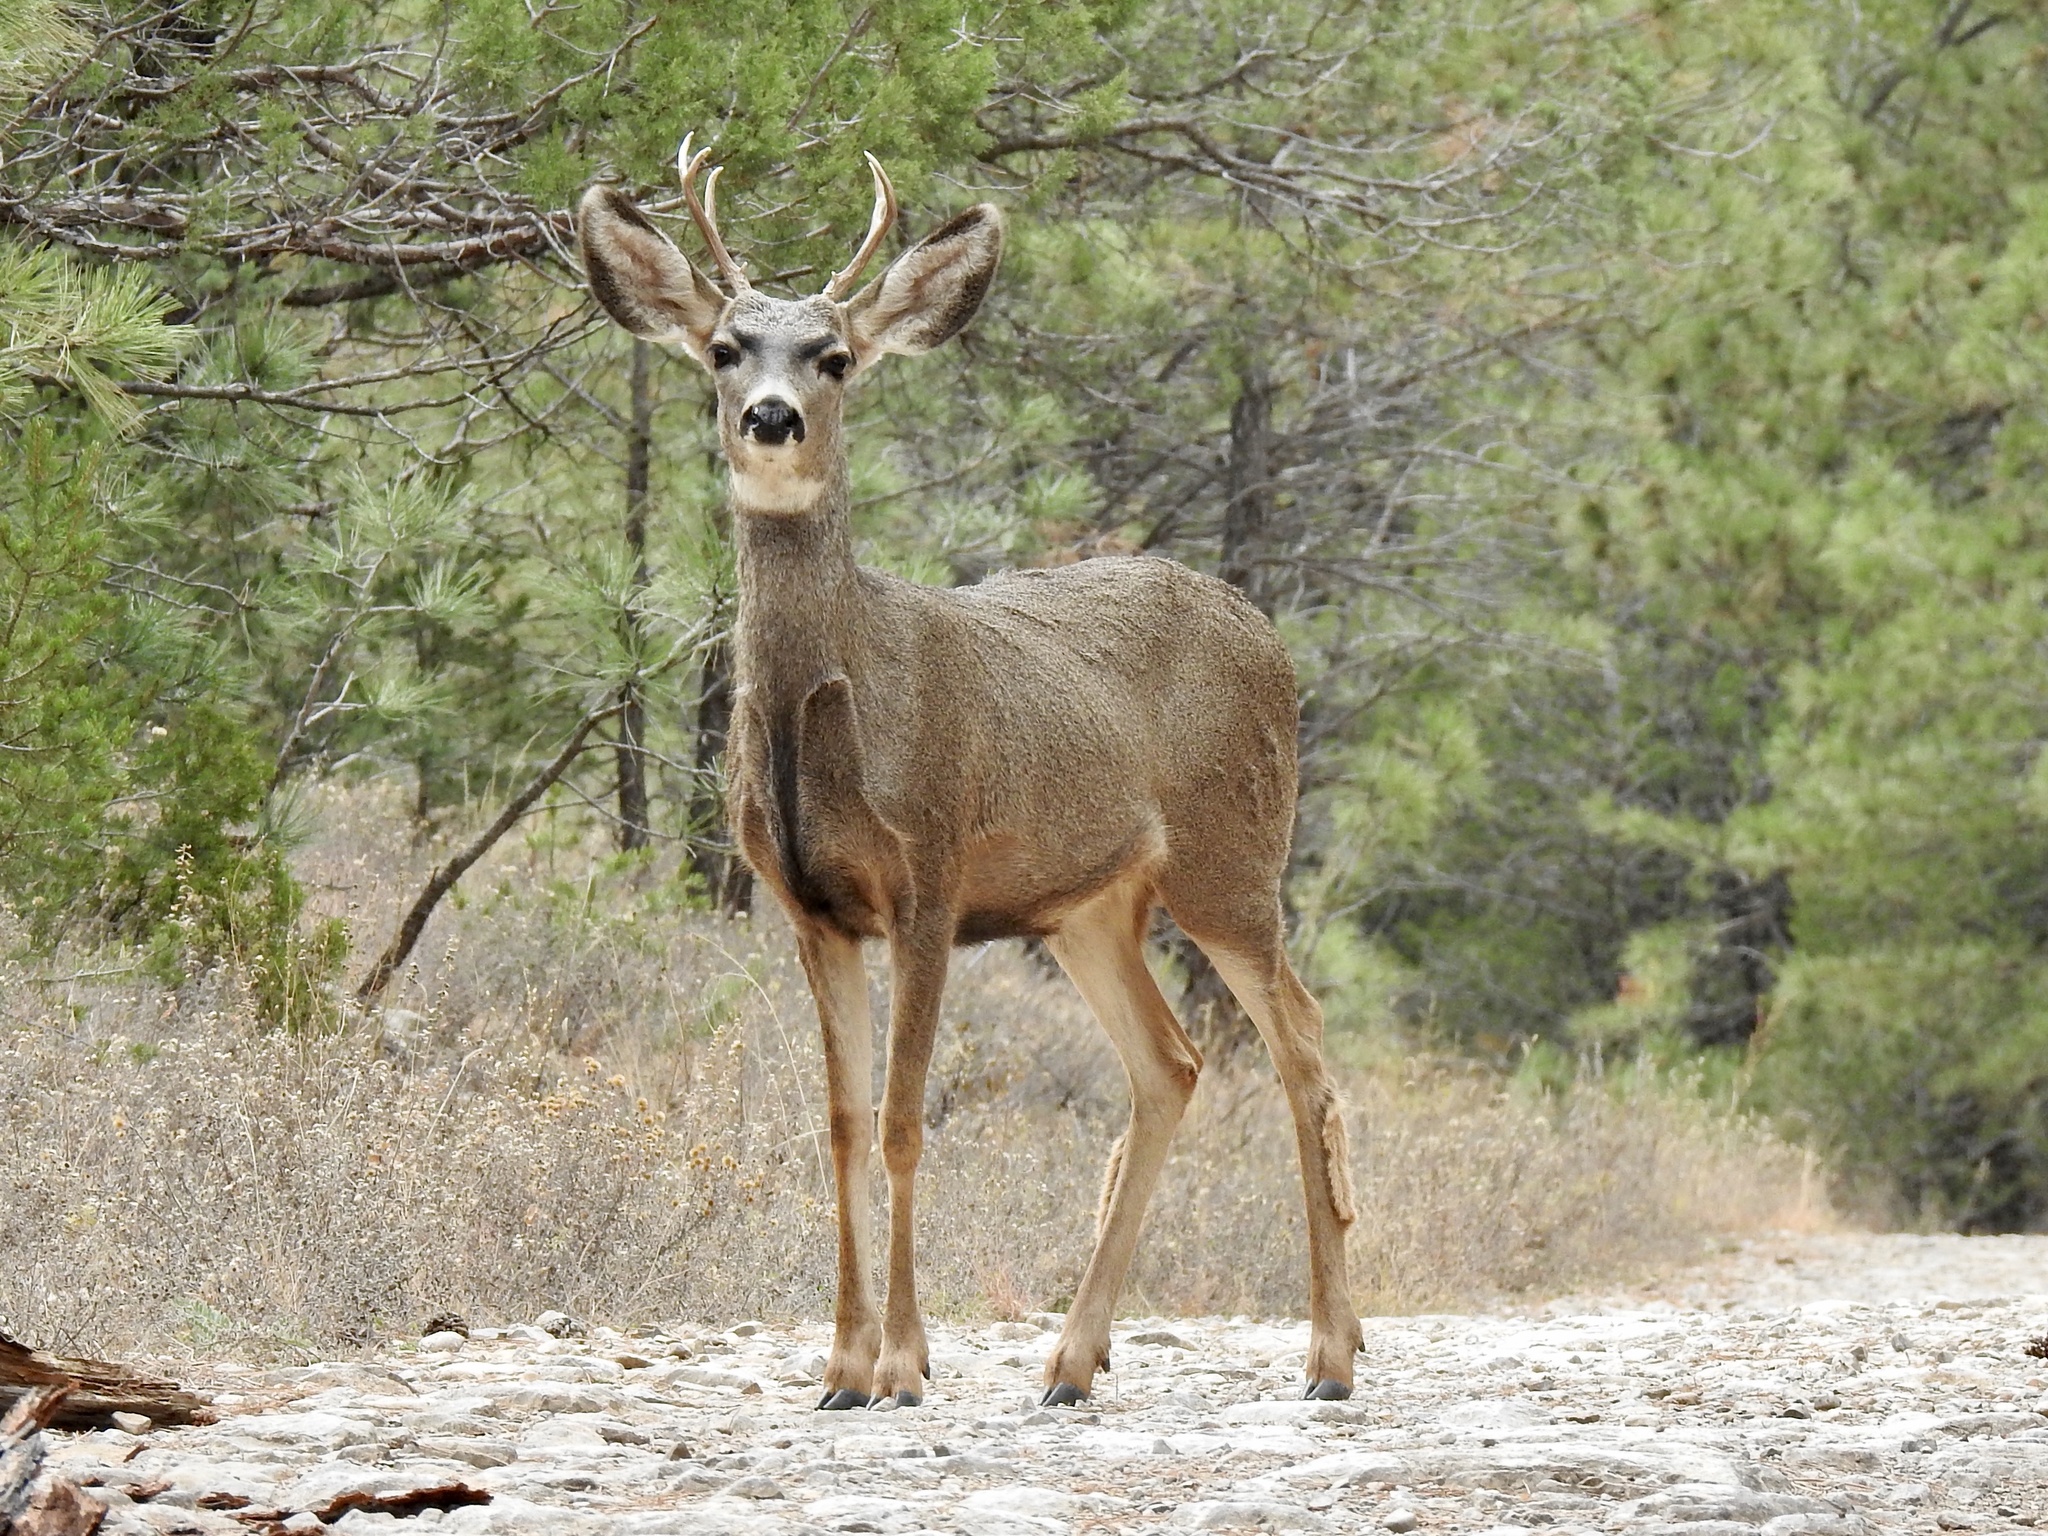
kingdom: Animalia
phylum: Chordata
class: Mammalia
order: Artiodactyla
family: Cervidae
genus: Odocoileus
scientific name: Odocoileus hemionus
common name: Mule deer
